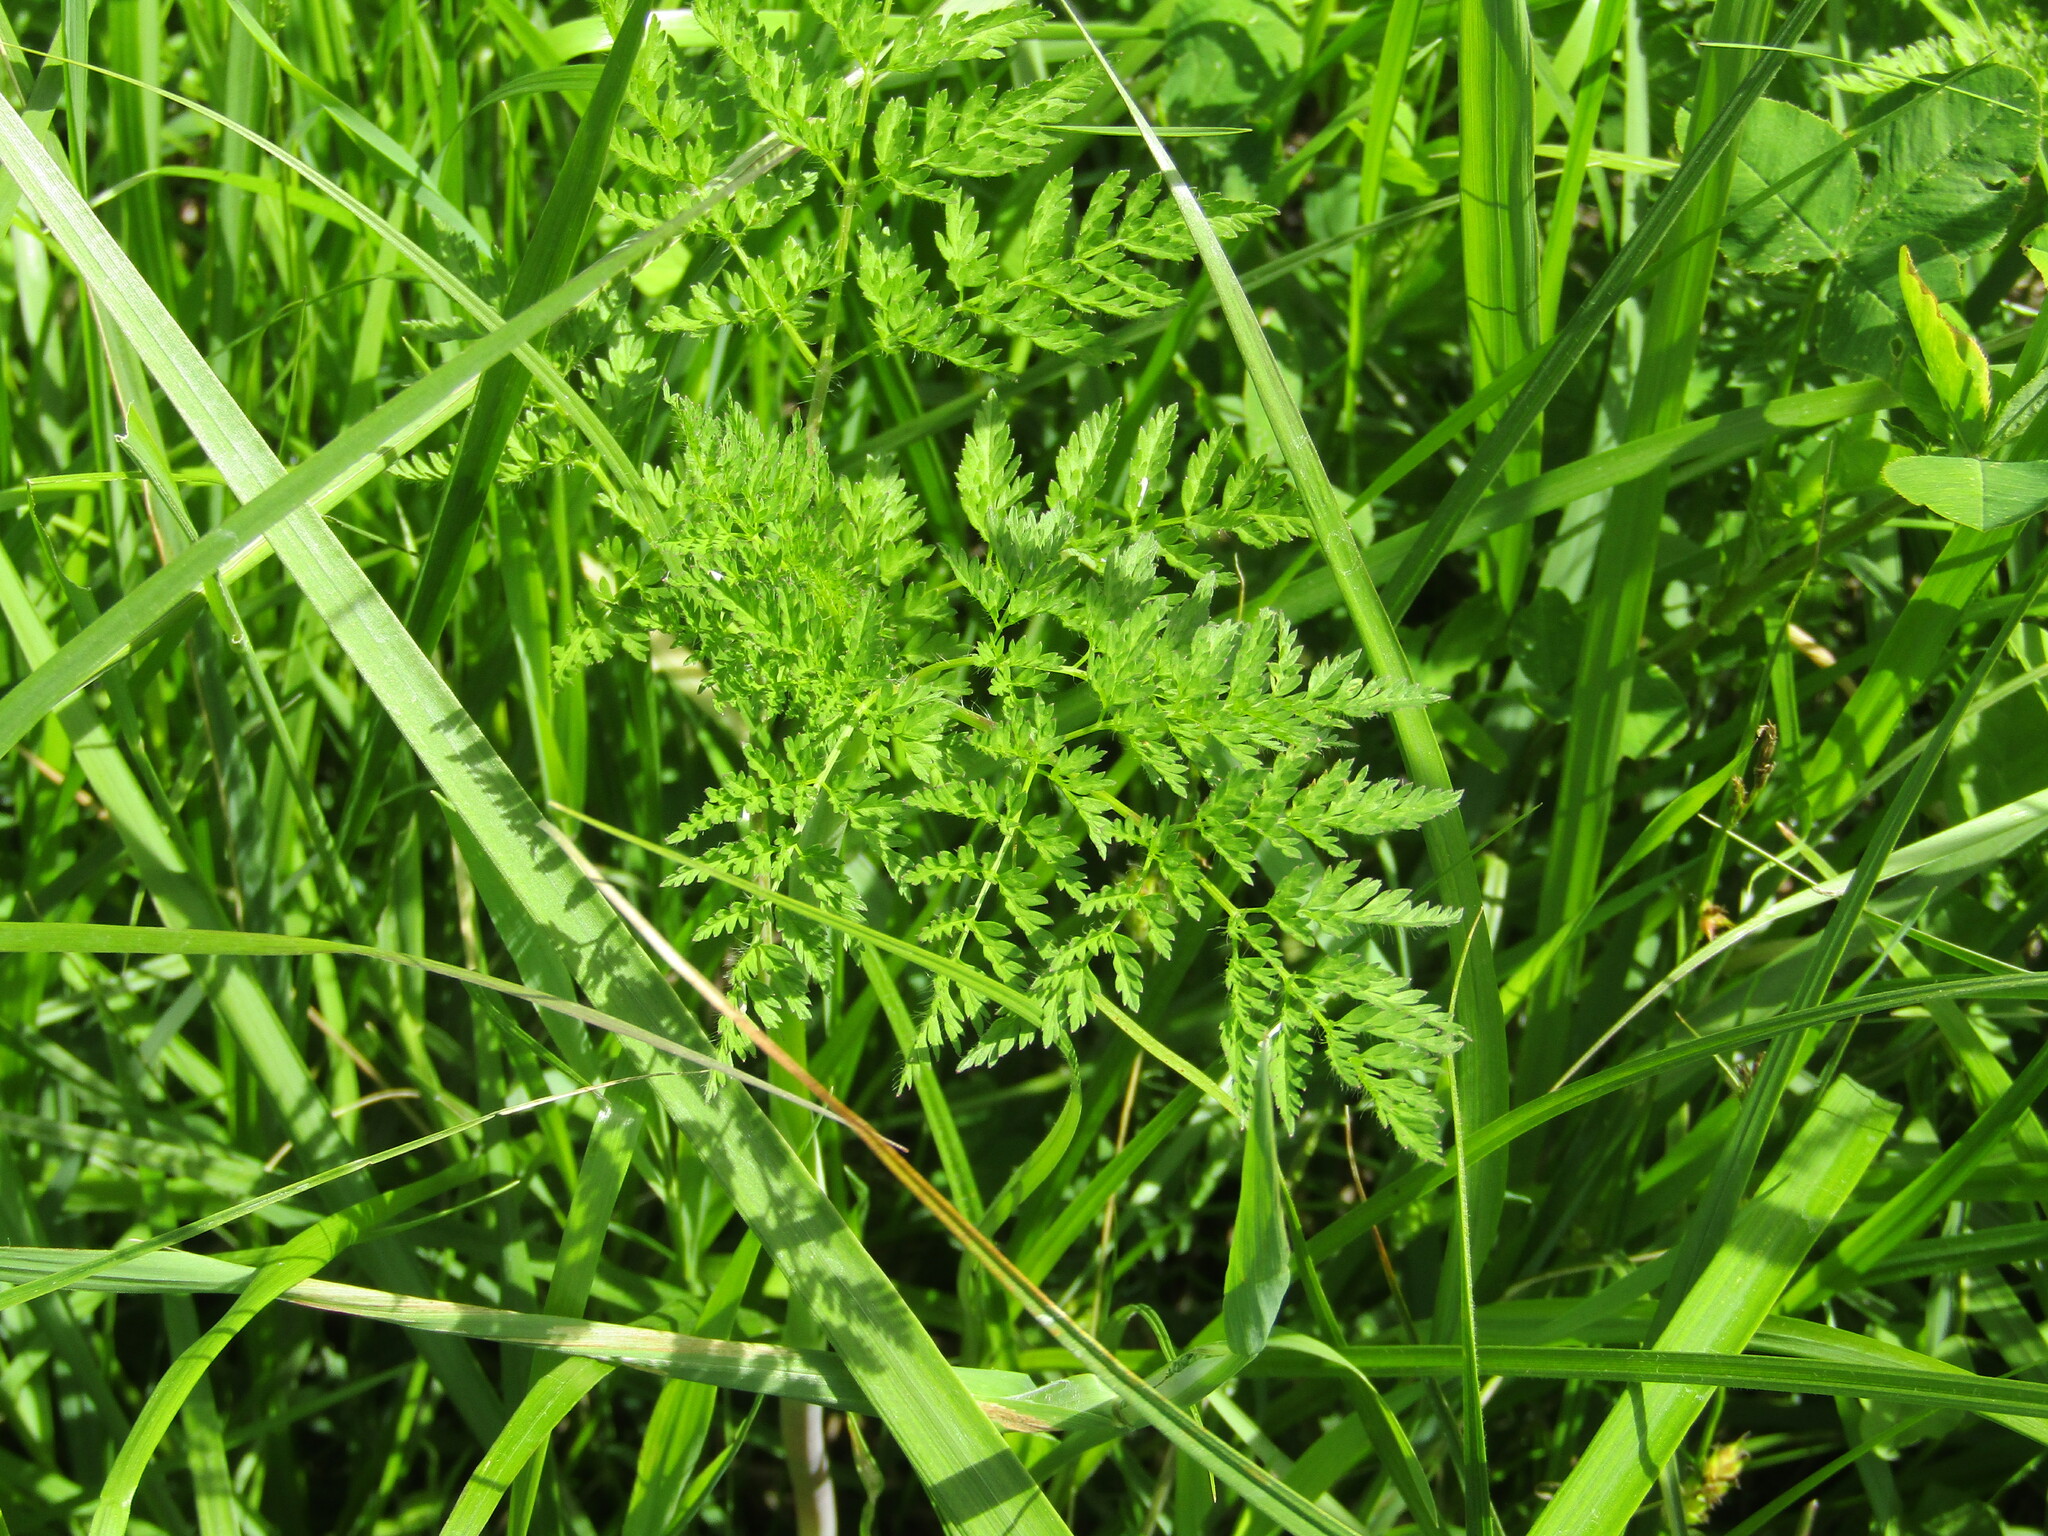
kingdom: Plantae
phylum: Tracheophyta
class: Magnoliopsida
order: Apiales
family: Apiaceae
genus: Anthriscus
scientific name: Anthriscus sylvestris
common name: Cow parsley
